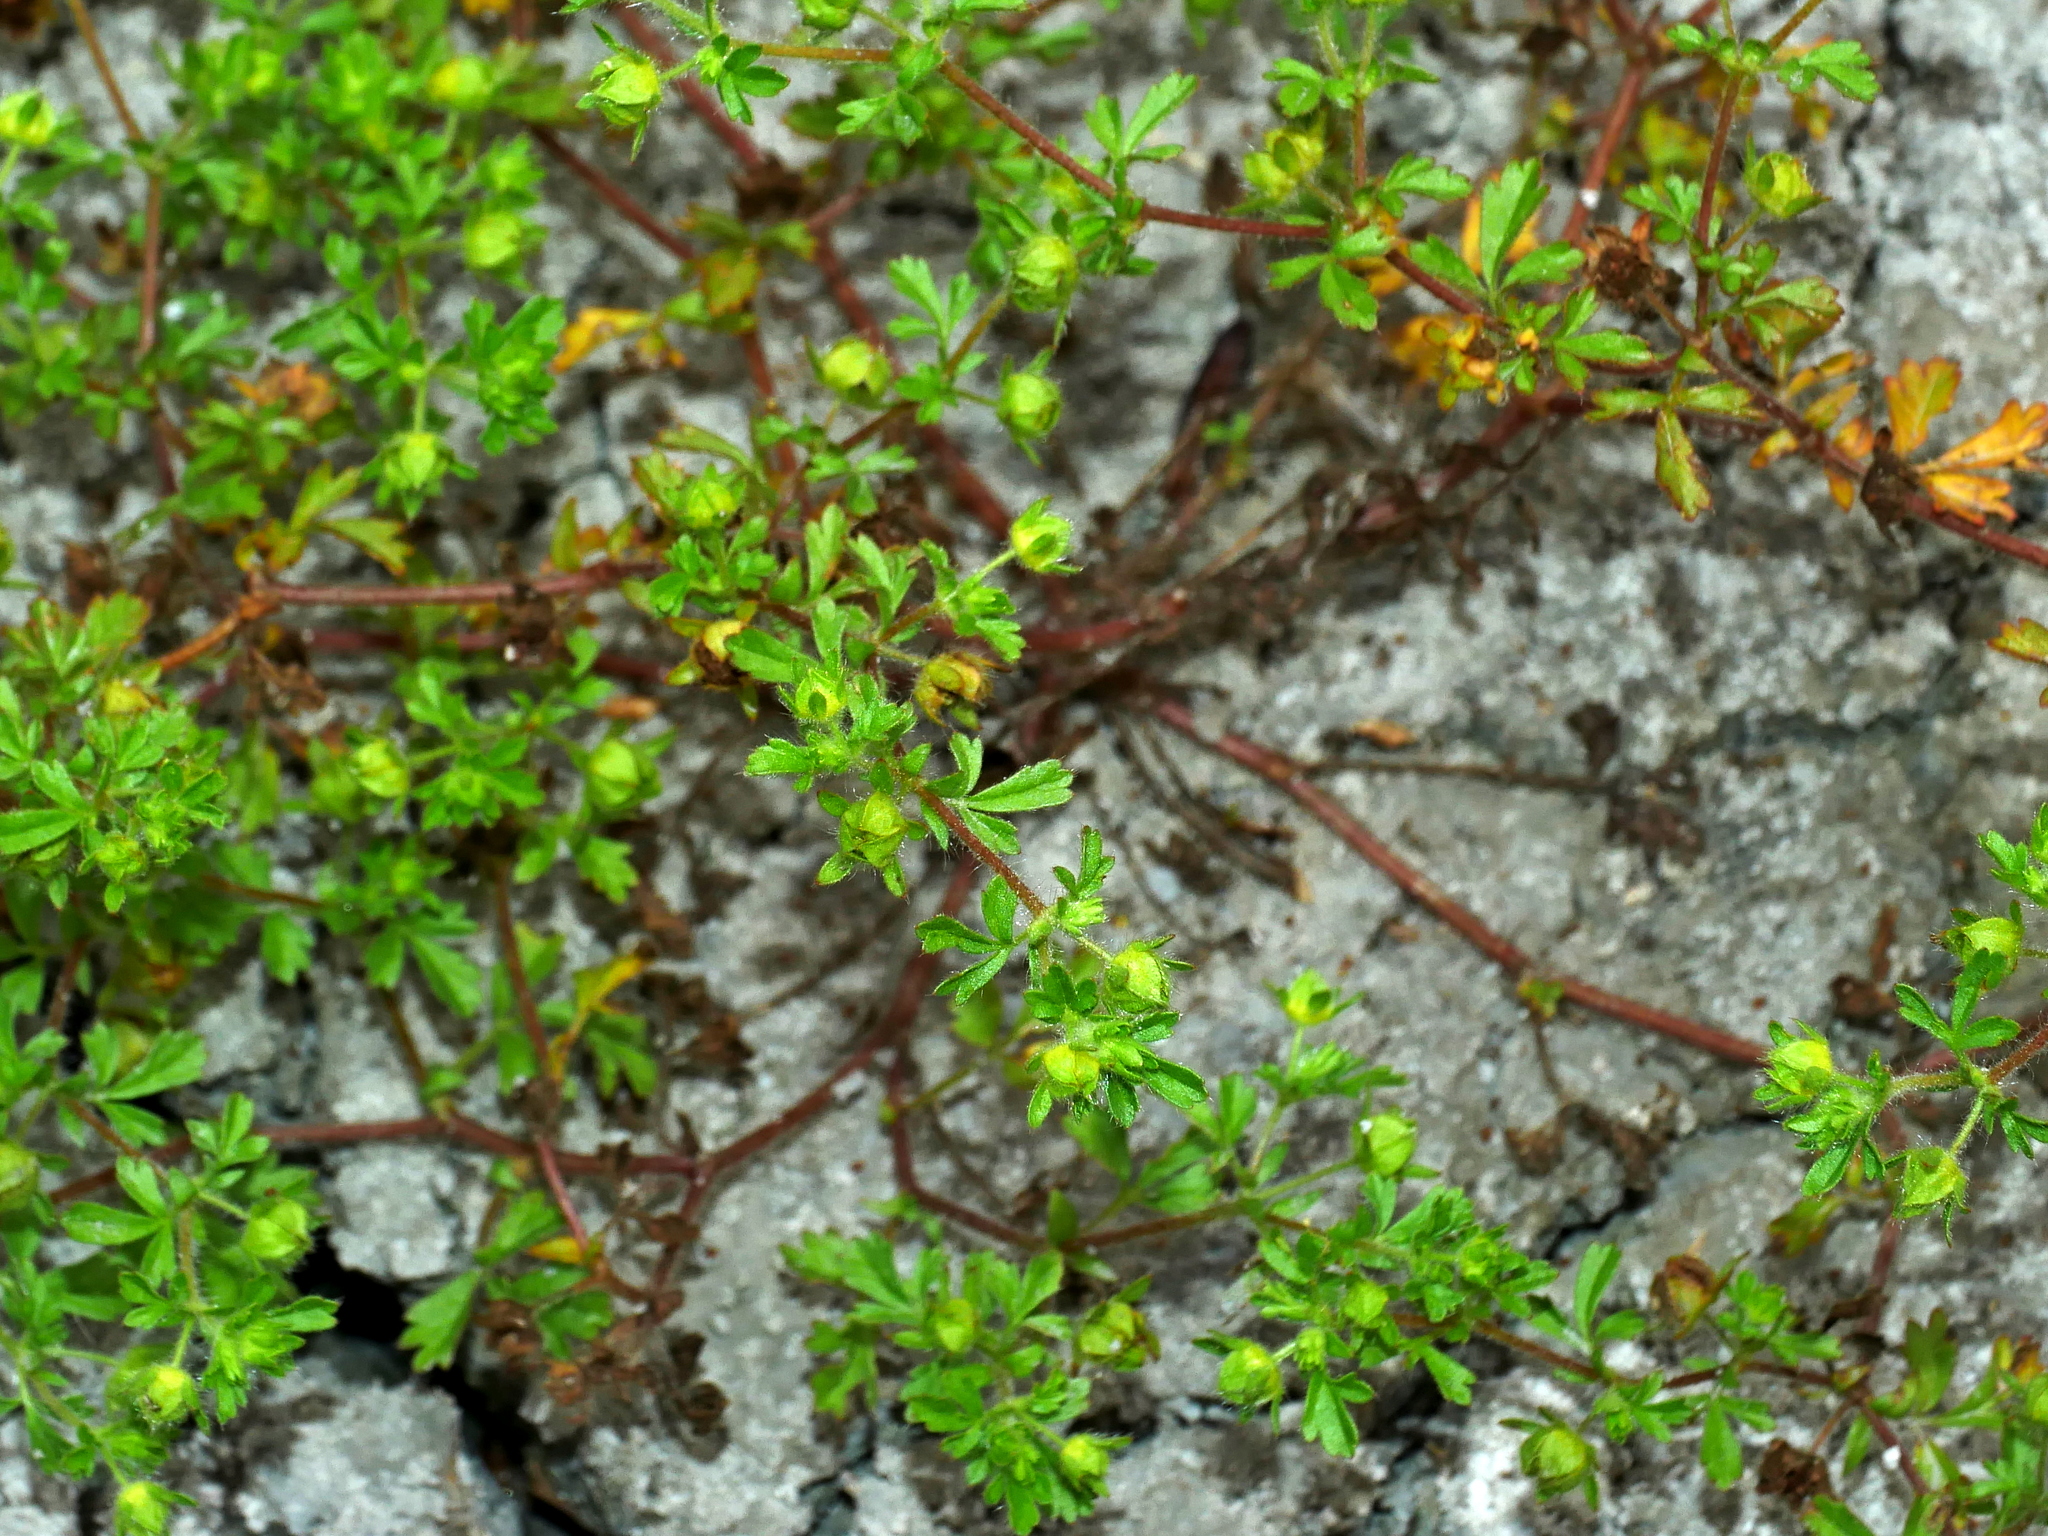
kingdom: Plantae
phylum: Tracheophyta
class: Magnoliopsida
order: Rosales
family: Rosaceae
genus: Potentilla
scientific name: Potentilla heynei
